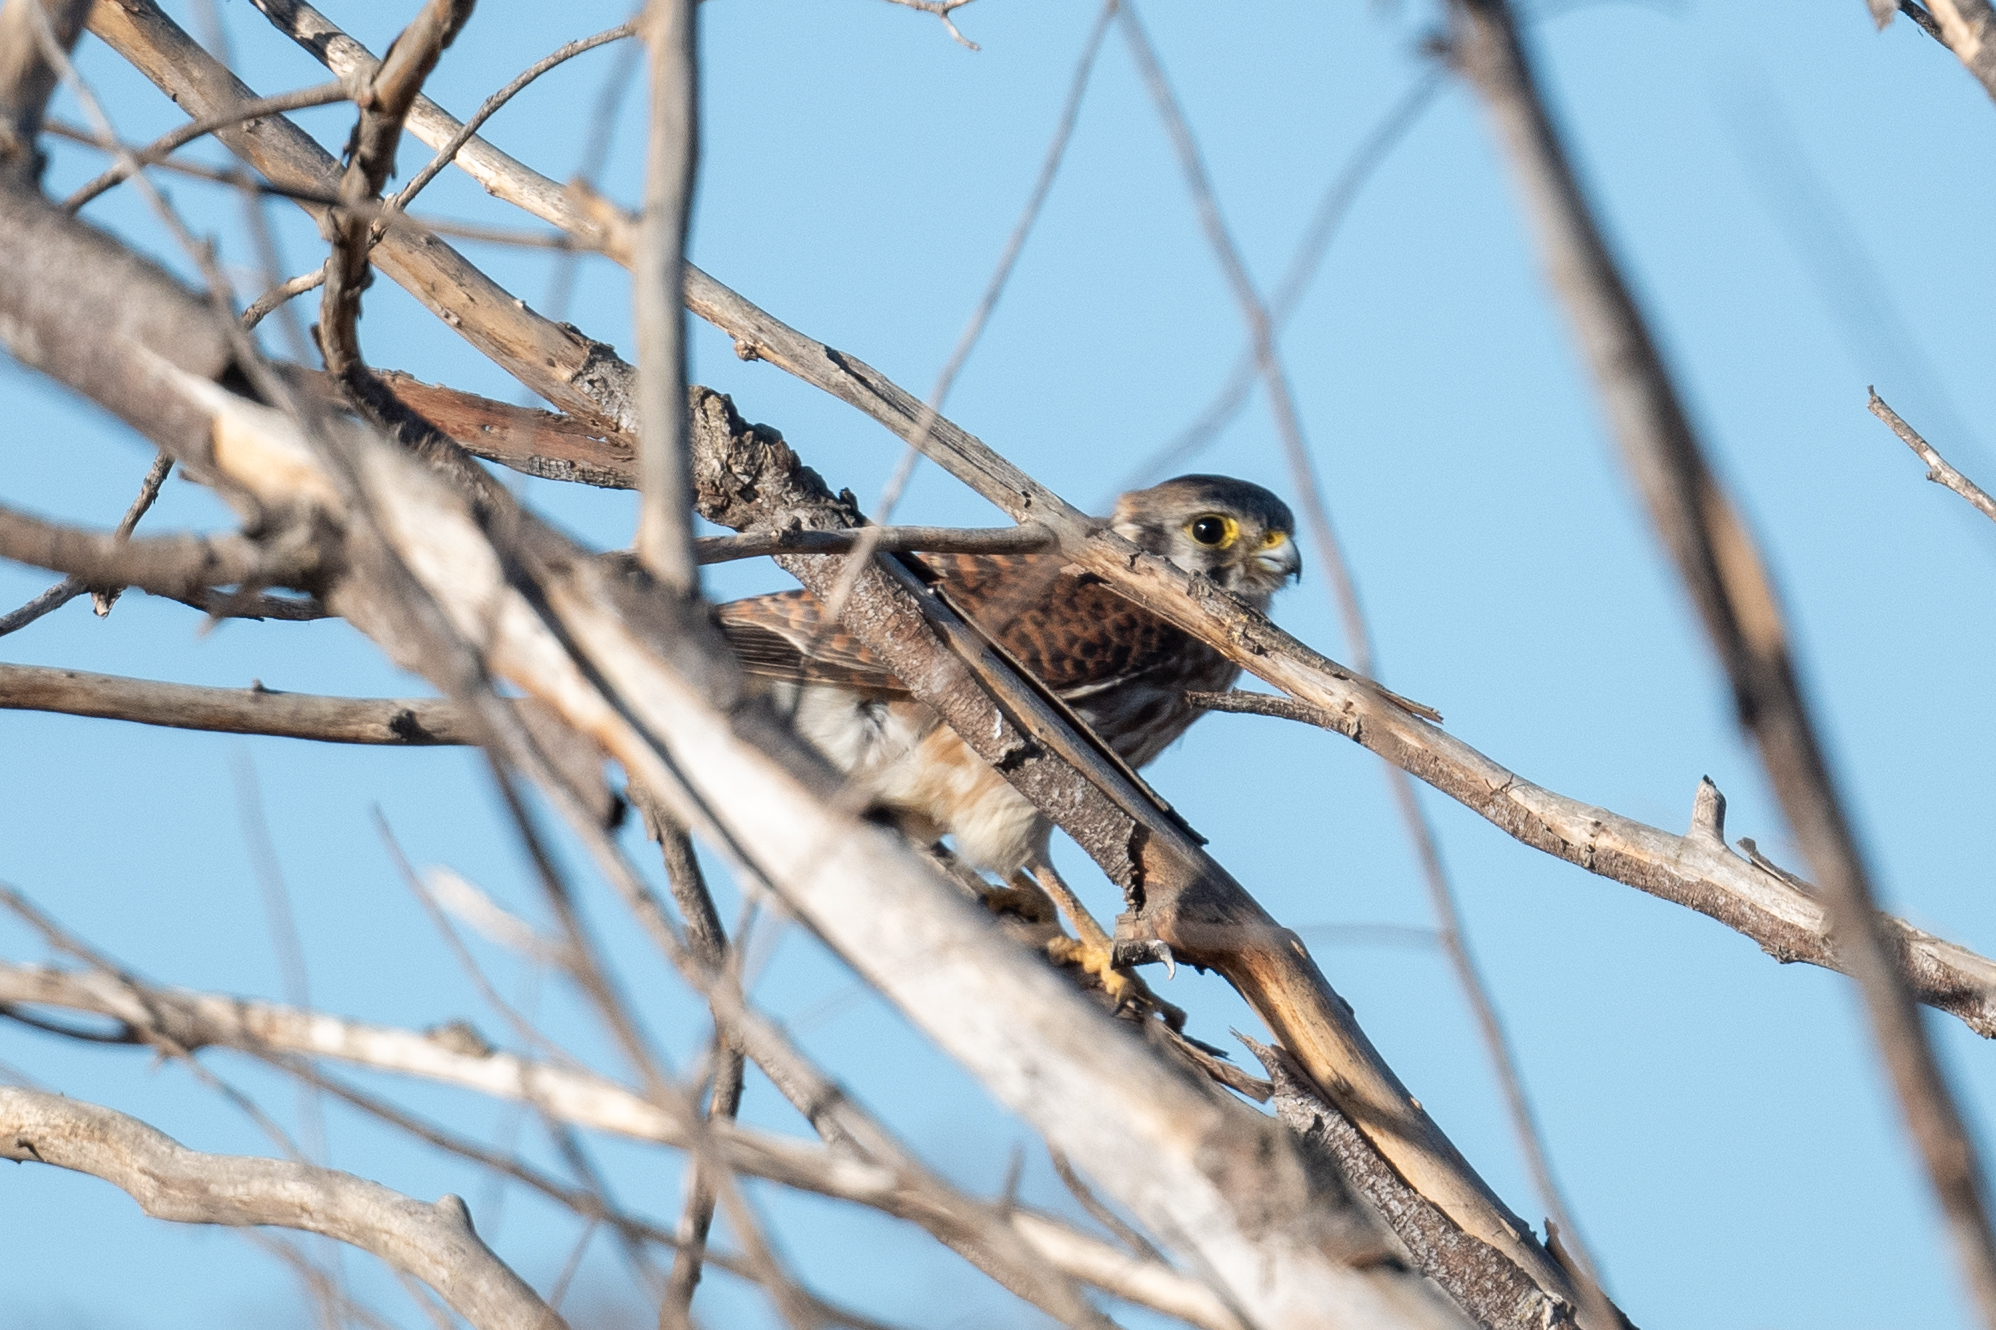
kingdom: Animalia
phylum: Chordata
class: Aves
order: Falconiformes
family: Falconidae
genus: Falco
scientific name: Falco sparverius
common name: American kestrel
